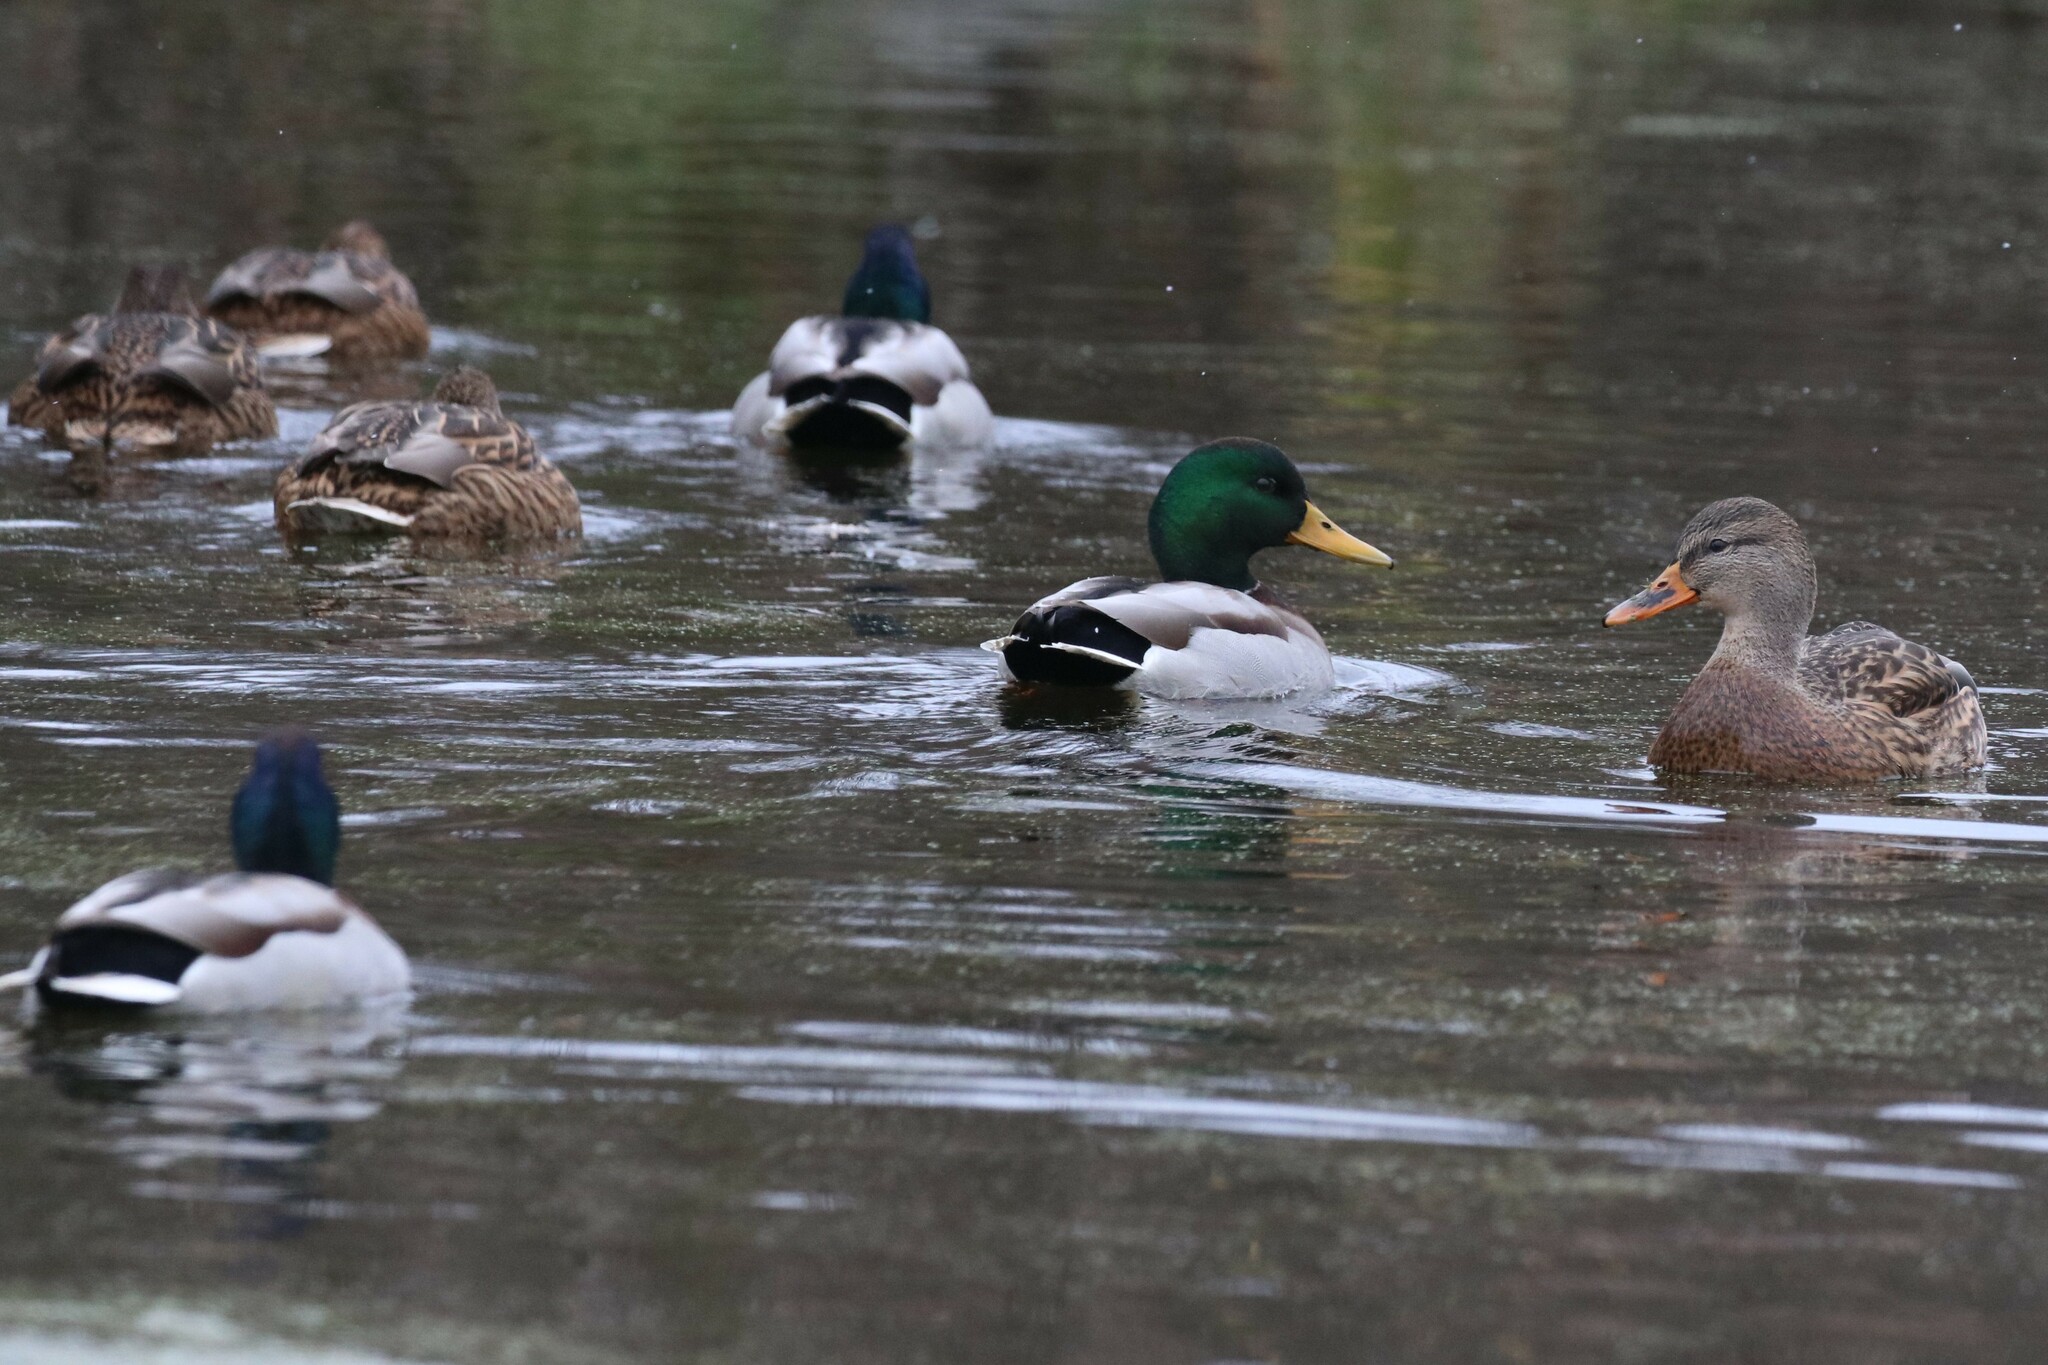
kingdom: Animalia
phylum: Chordata
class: Aves
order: Anseriformes
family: Anatidae
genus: Anas
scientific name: Anas platyrhynchos
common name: Mallard
